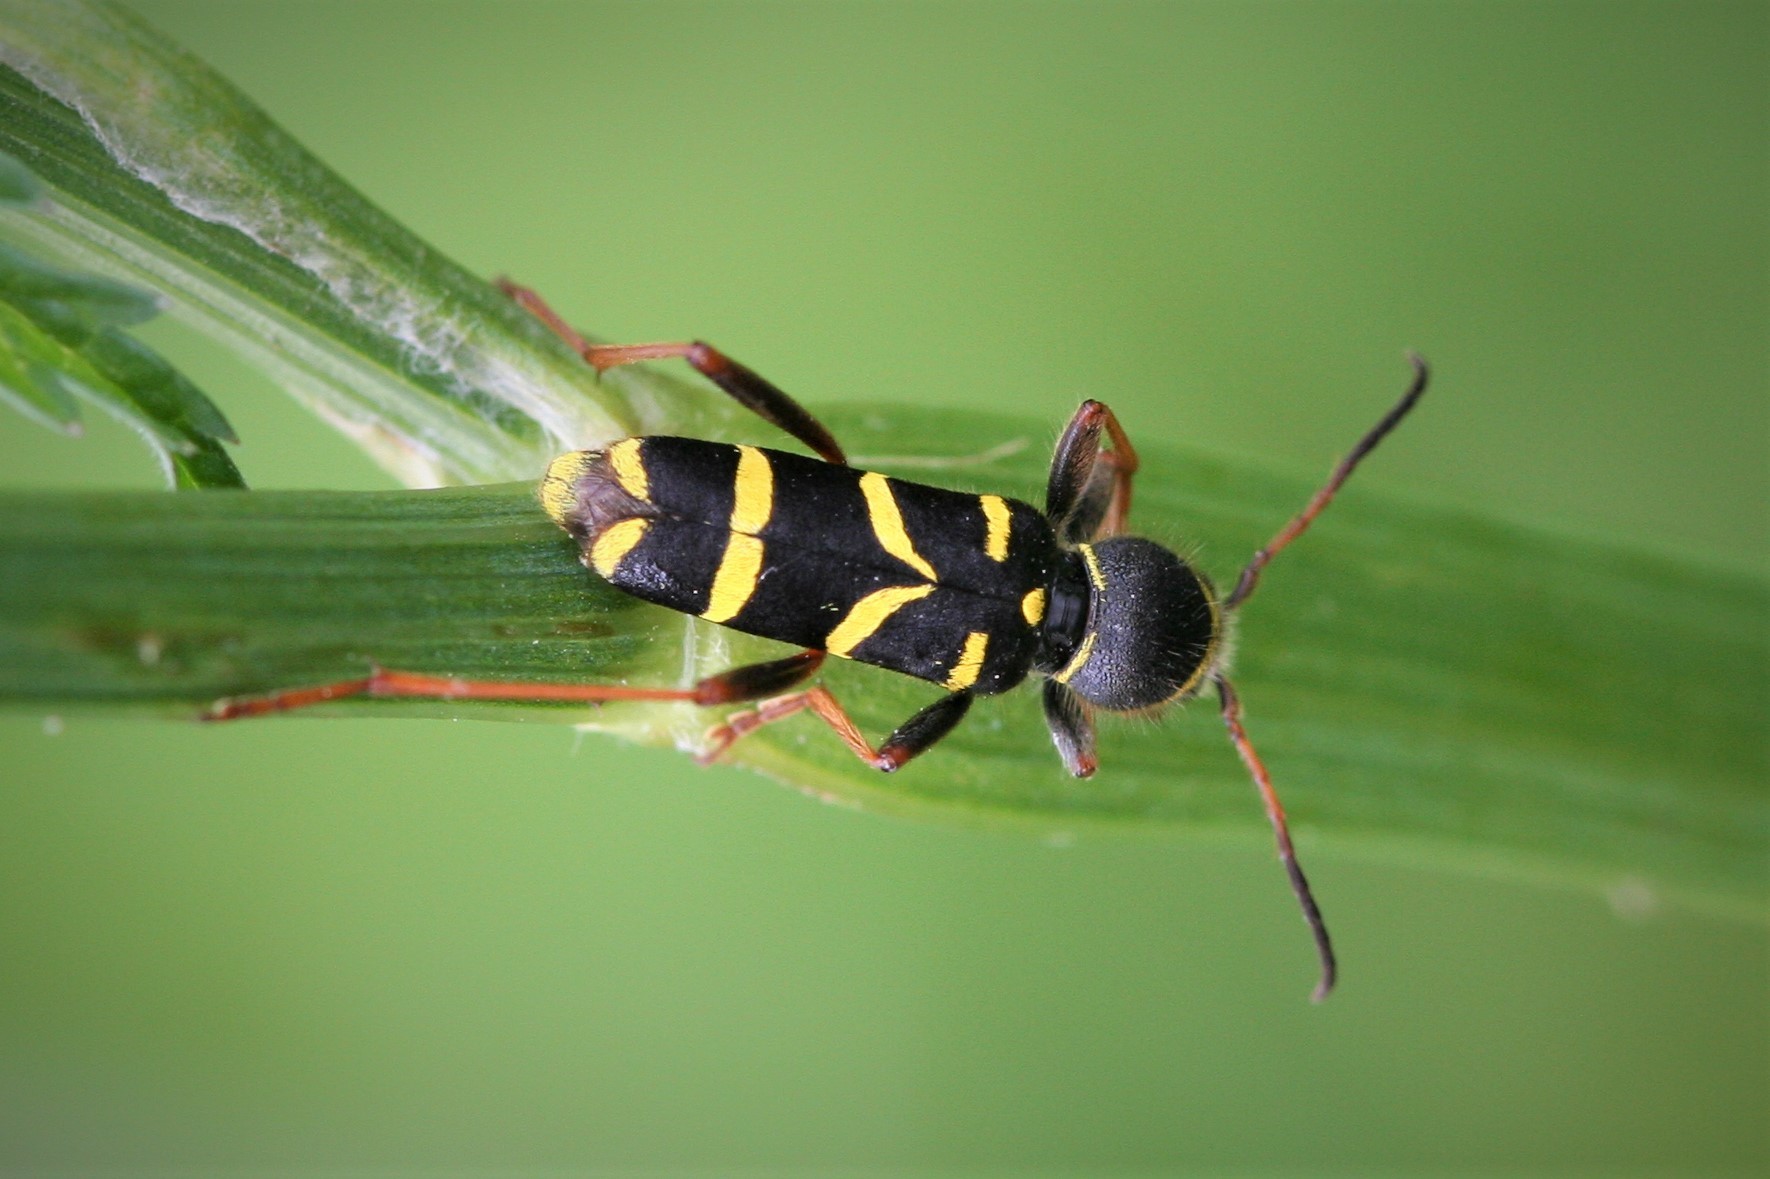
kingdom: Animalia
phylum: Arthropoda
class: Insecta
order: Coleoptera
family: Cerambycidae
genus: Clytus
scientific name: Clytus arietis
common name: Wasp beetle
